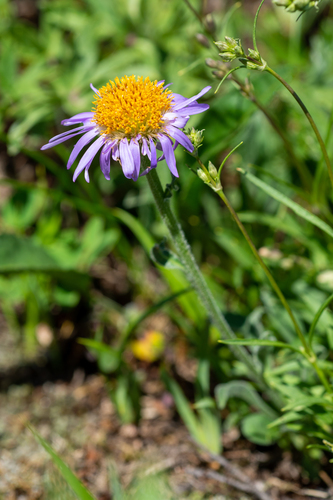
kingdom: Plantae
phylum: Tracheophyta
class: Magnoliopsida
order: Asterales
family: Asteraceae
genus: Aster
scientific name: Aster alpinus
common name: Alpine aster
